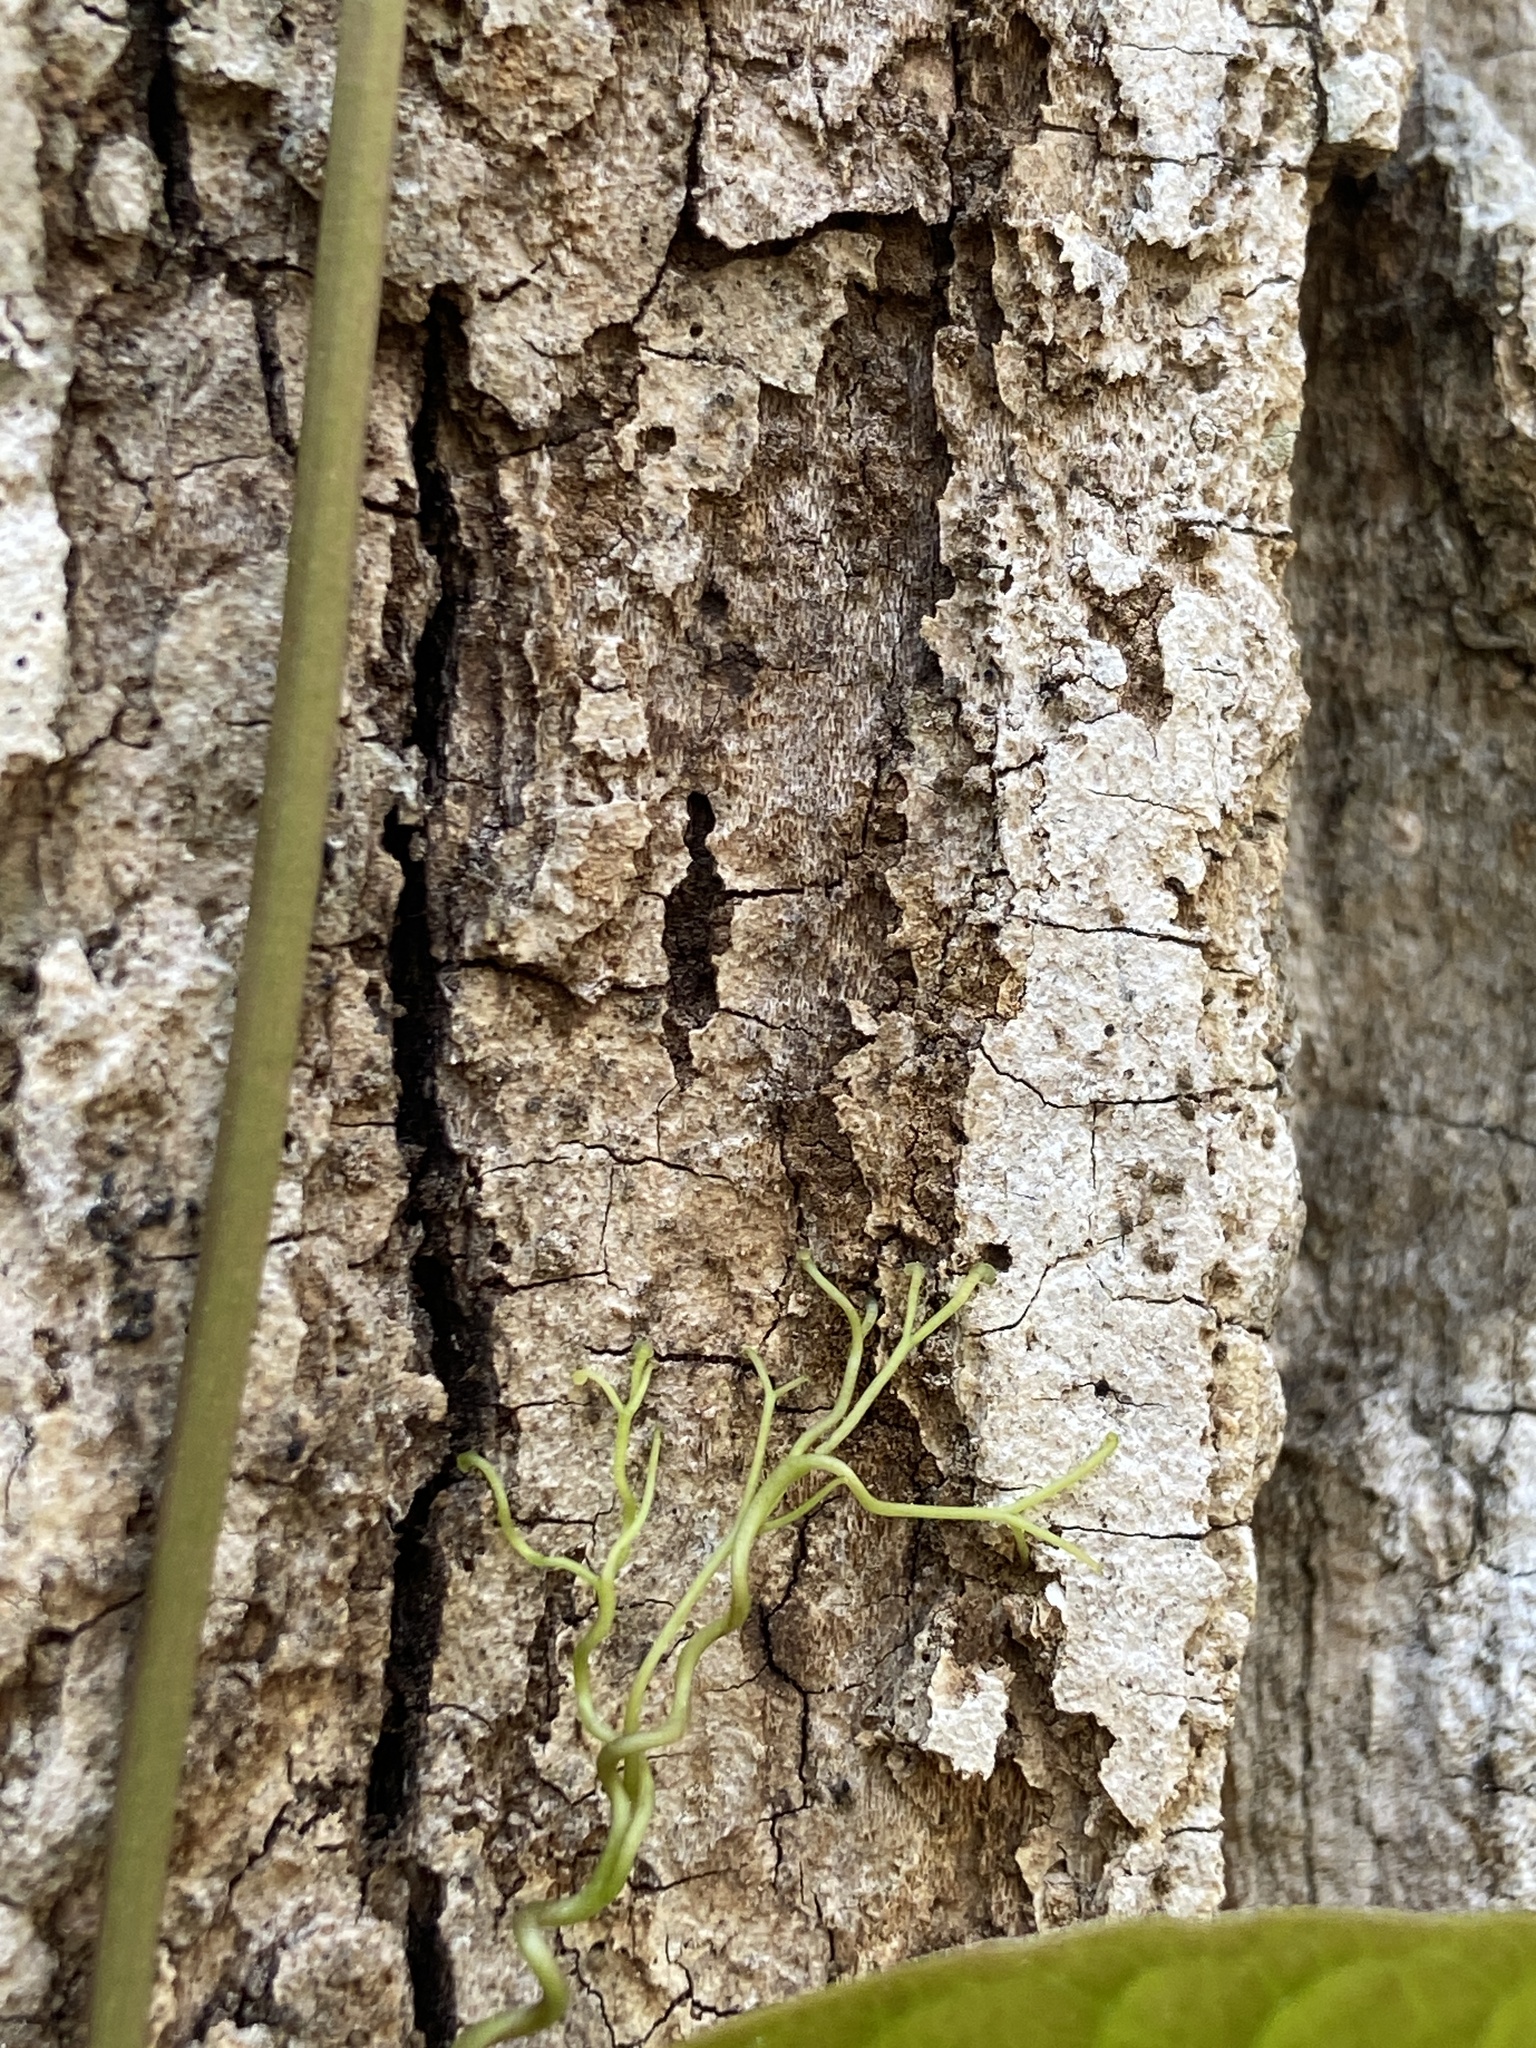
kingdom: Plantae
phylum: Tracheophyta
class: Magnoliopsida
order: Lamiales
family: Bignoniaceae
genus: Bignonia
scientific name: Bignonia capreolata
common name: Crossvine
